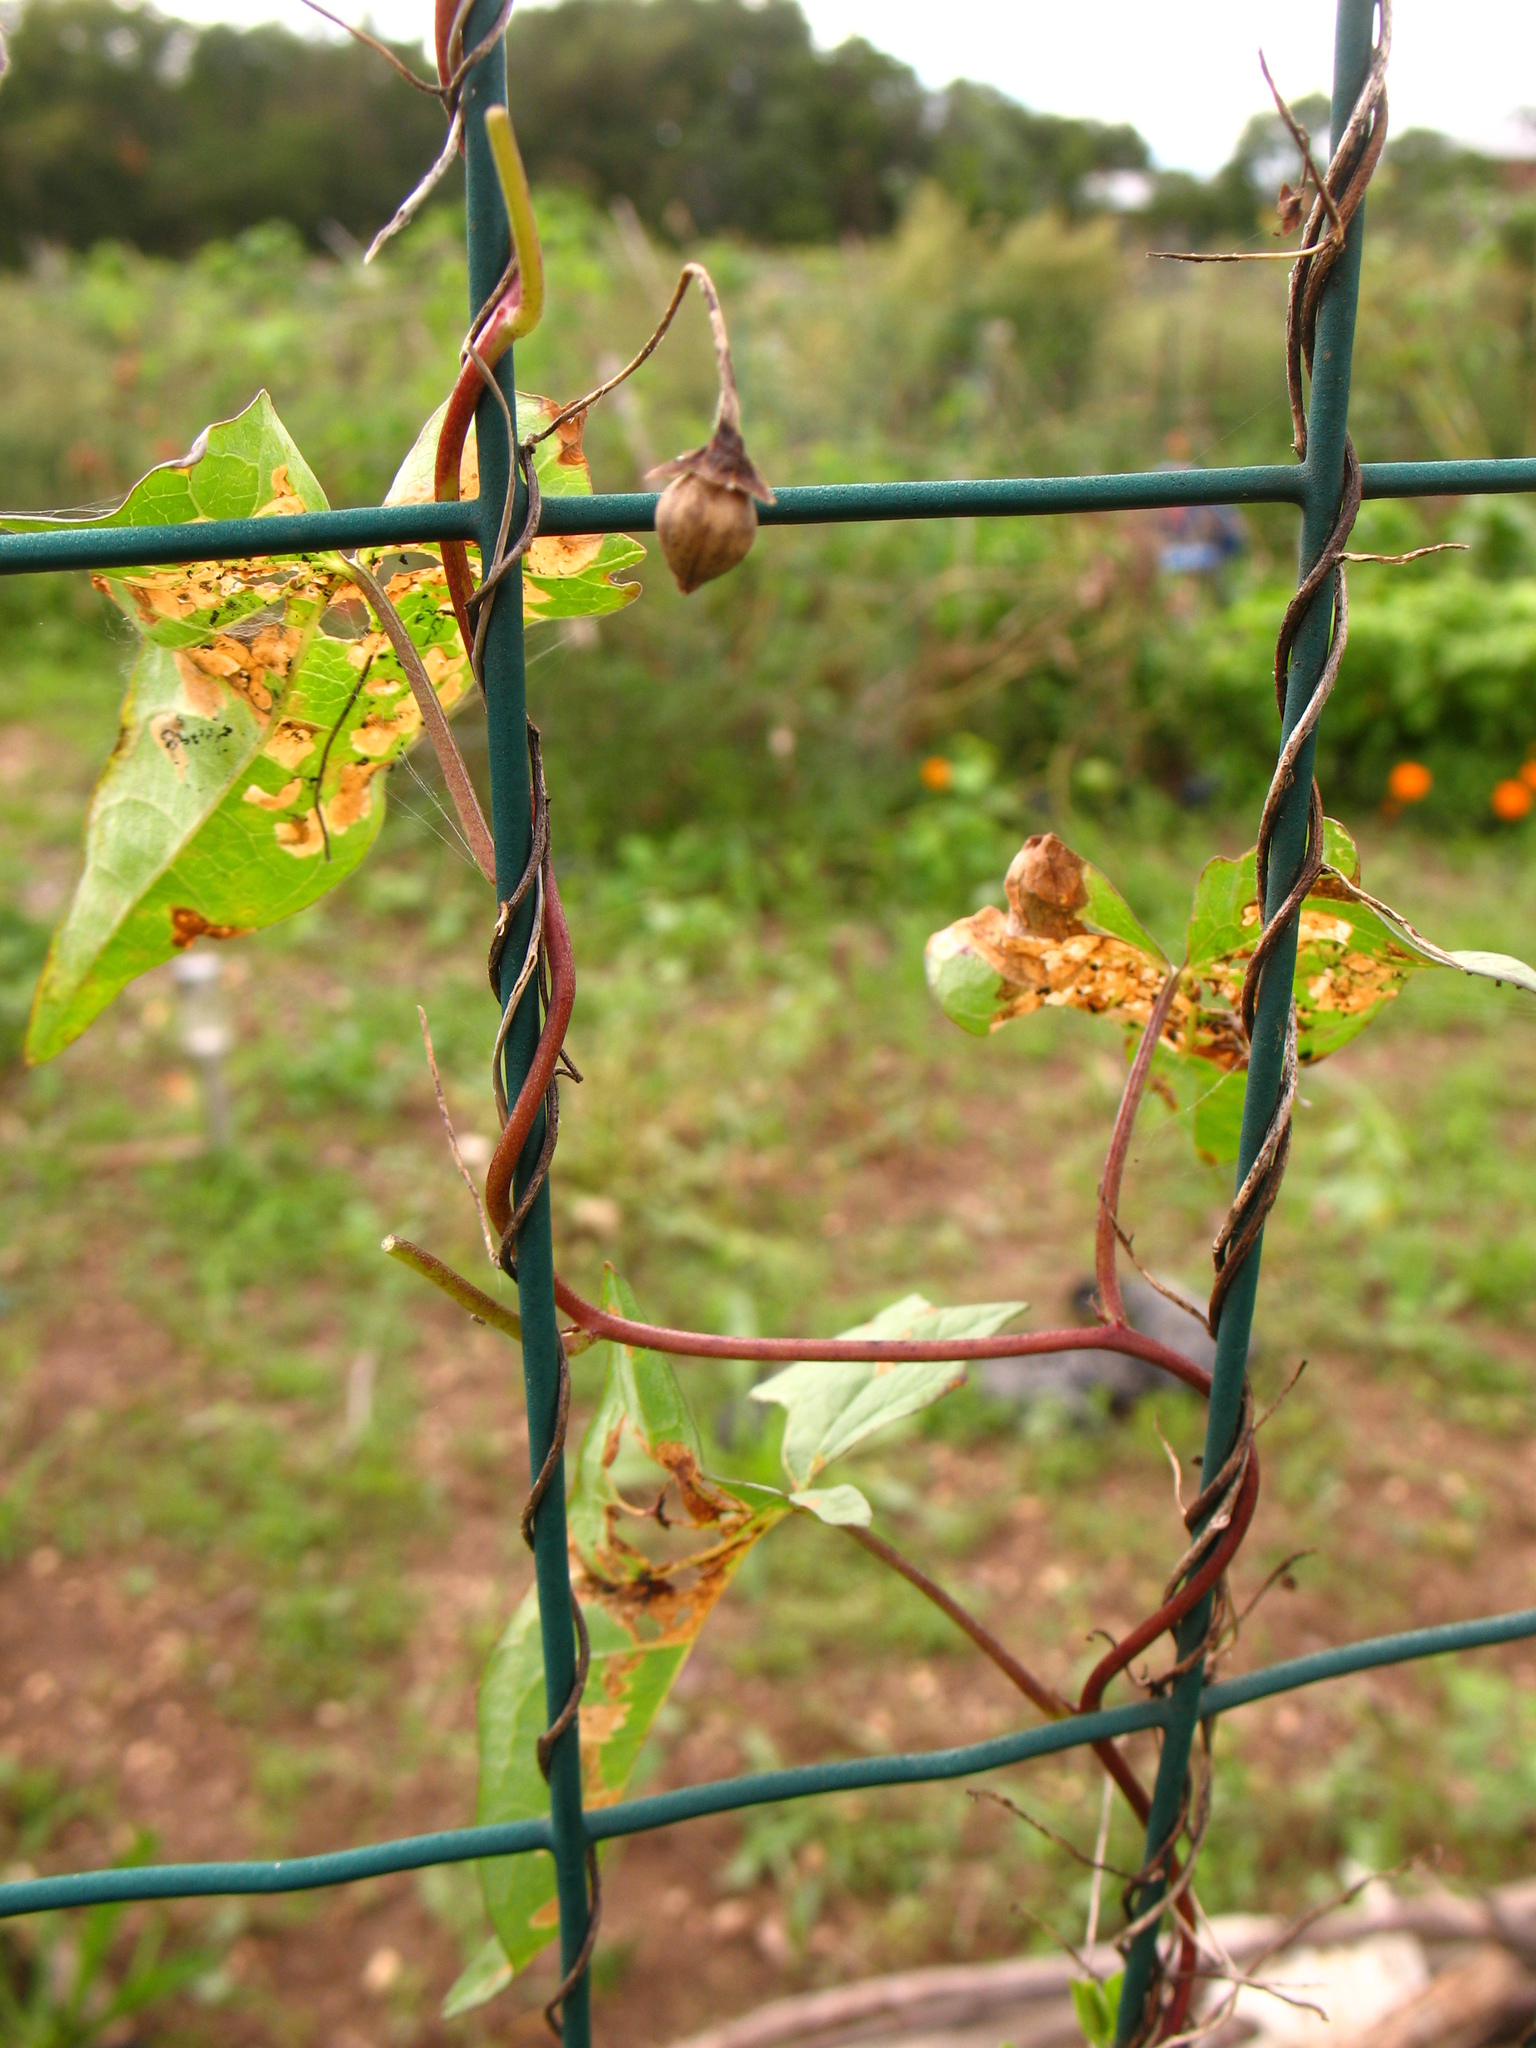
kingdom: Plantae
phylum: Tracheophyta
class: Magnoliopsida
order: Solanales
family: Convolvulaceae
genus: Calystegia
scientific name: Calystegia sepium
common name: Hedge bindweed
